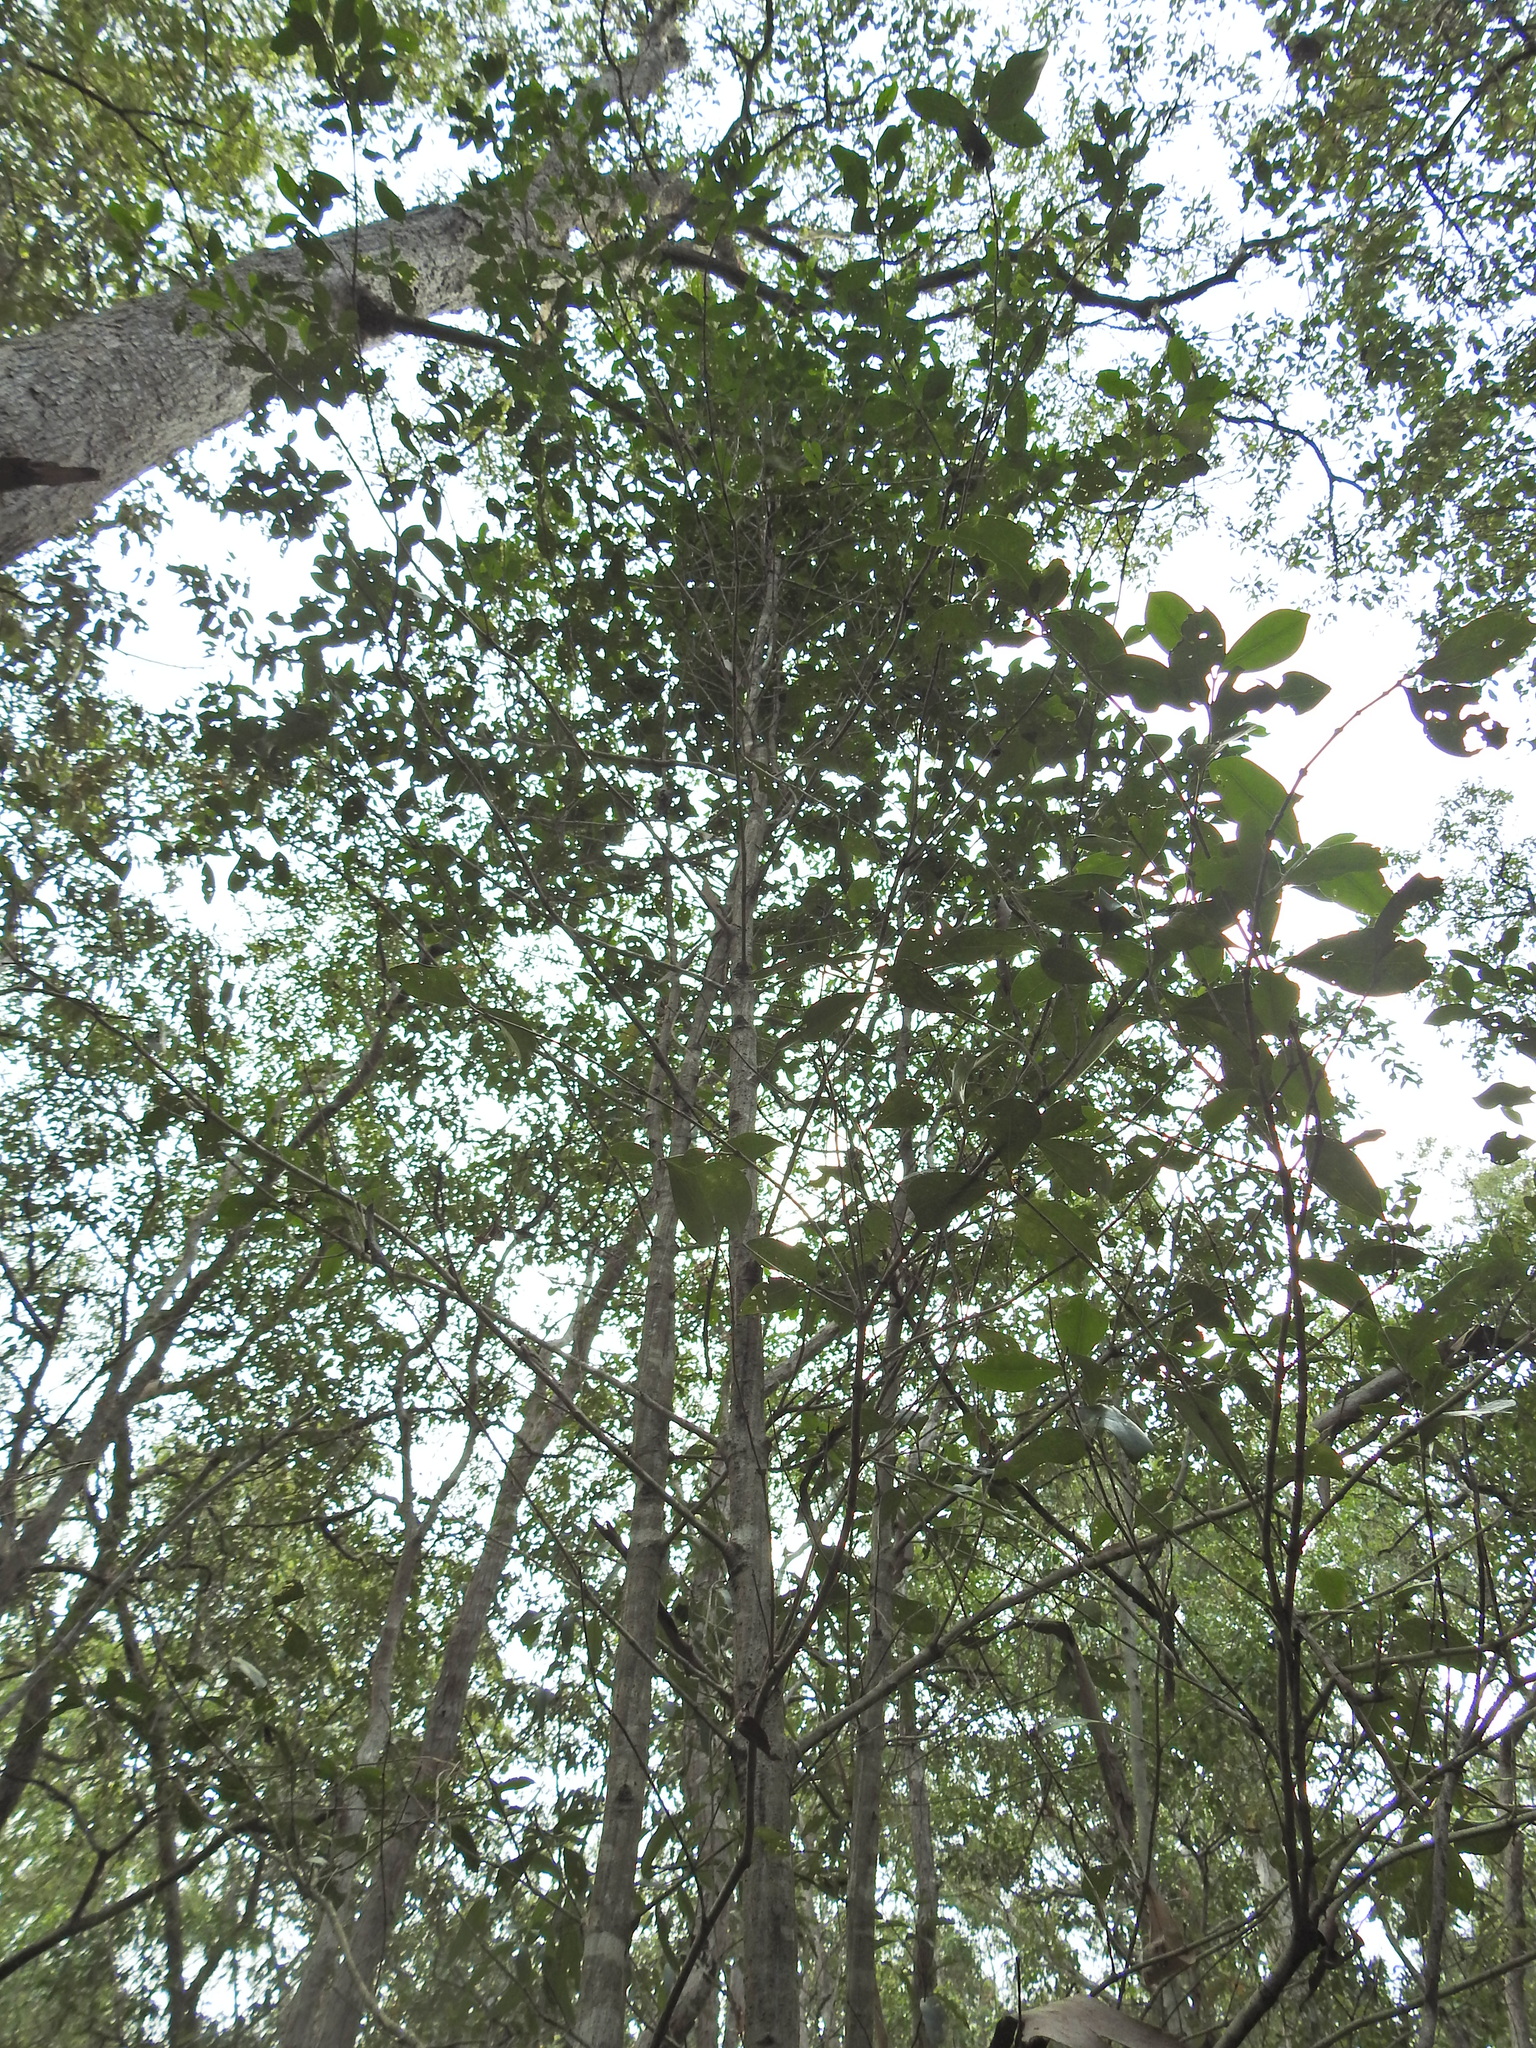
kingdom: Plantae
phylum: Tracheophyta
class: Magnoliopsida
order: Gentianales
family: Rubiaceae
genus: Cyclophyllum
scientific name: Cyclophyllum coprosmoides
